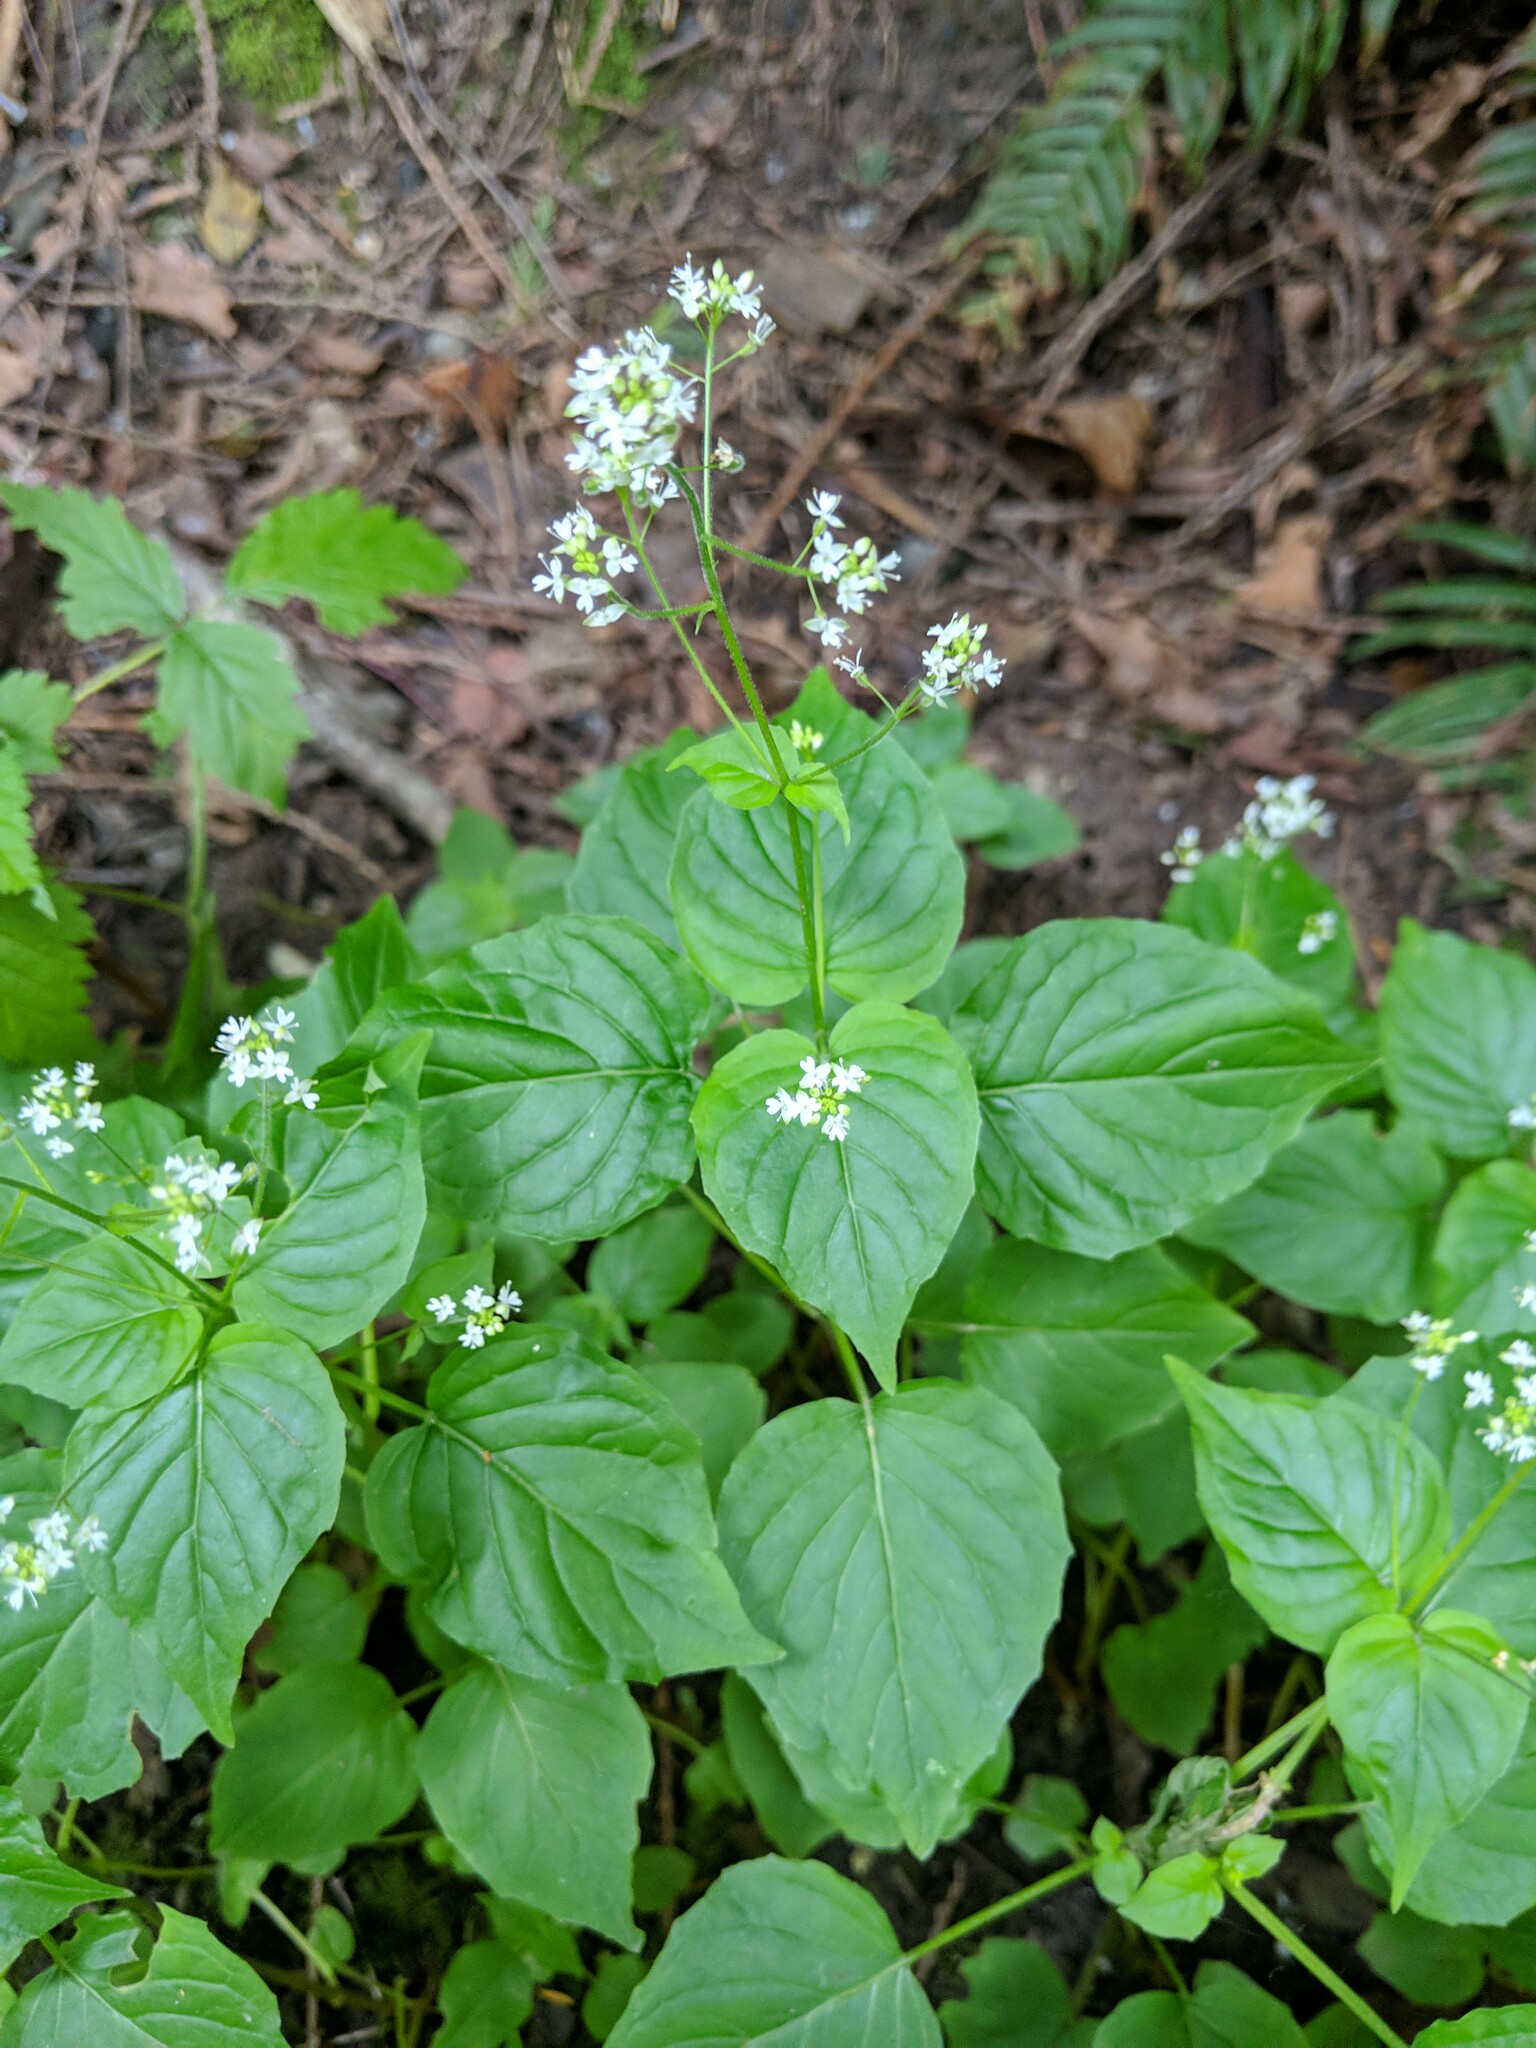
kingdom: Plantae
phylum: Tracheophyta
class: Magnoliopsida
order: Myrtales
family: Onagraceae
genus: Circaea
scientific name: Circaea alpina
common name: Alpine enchanter's-nightshade
